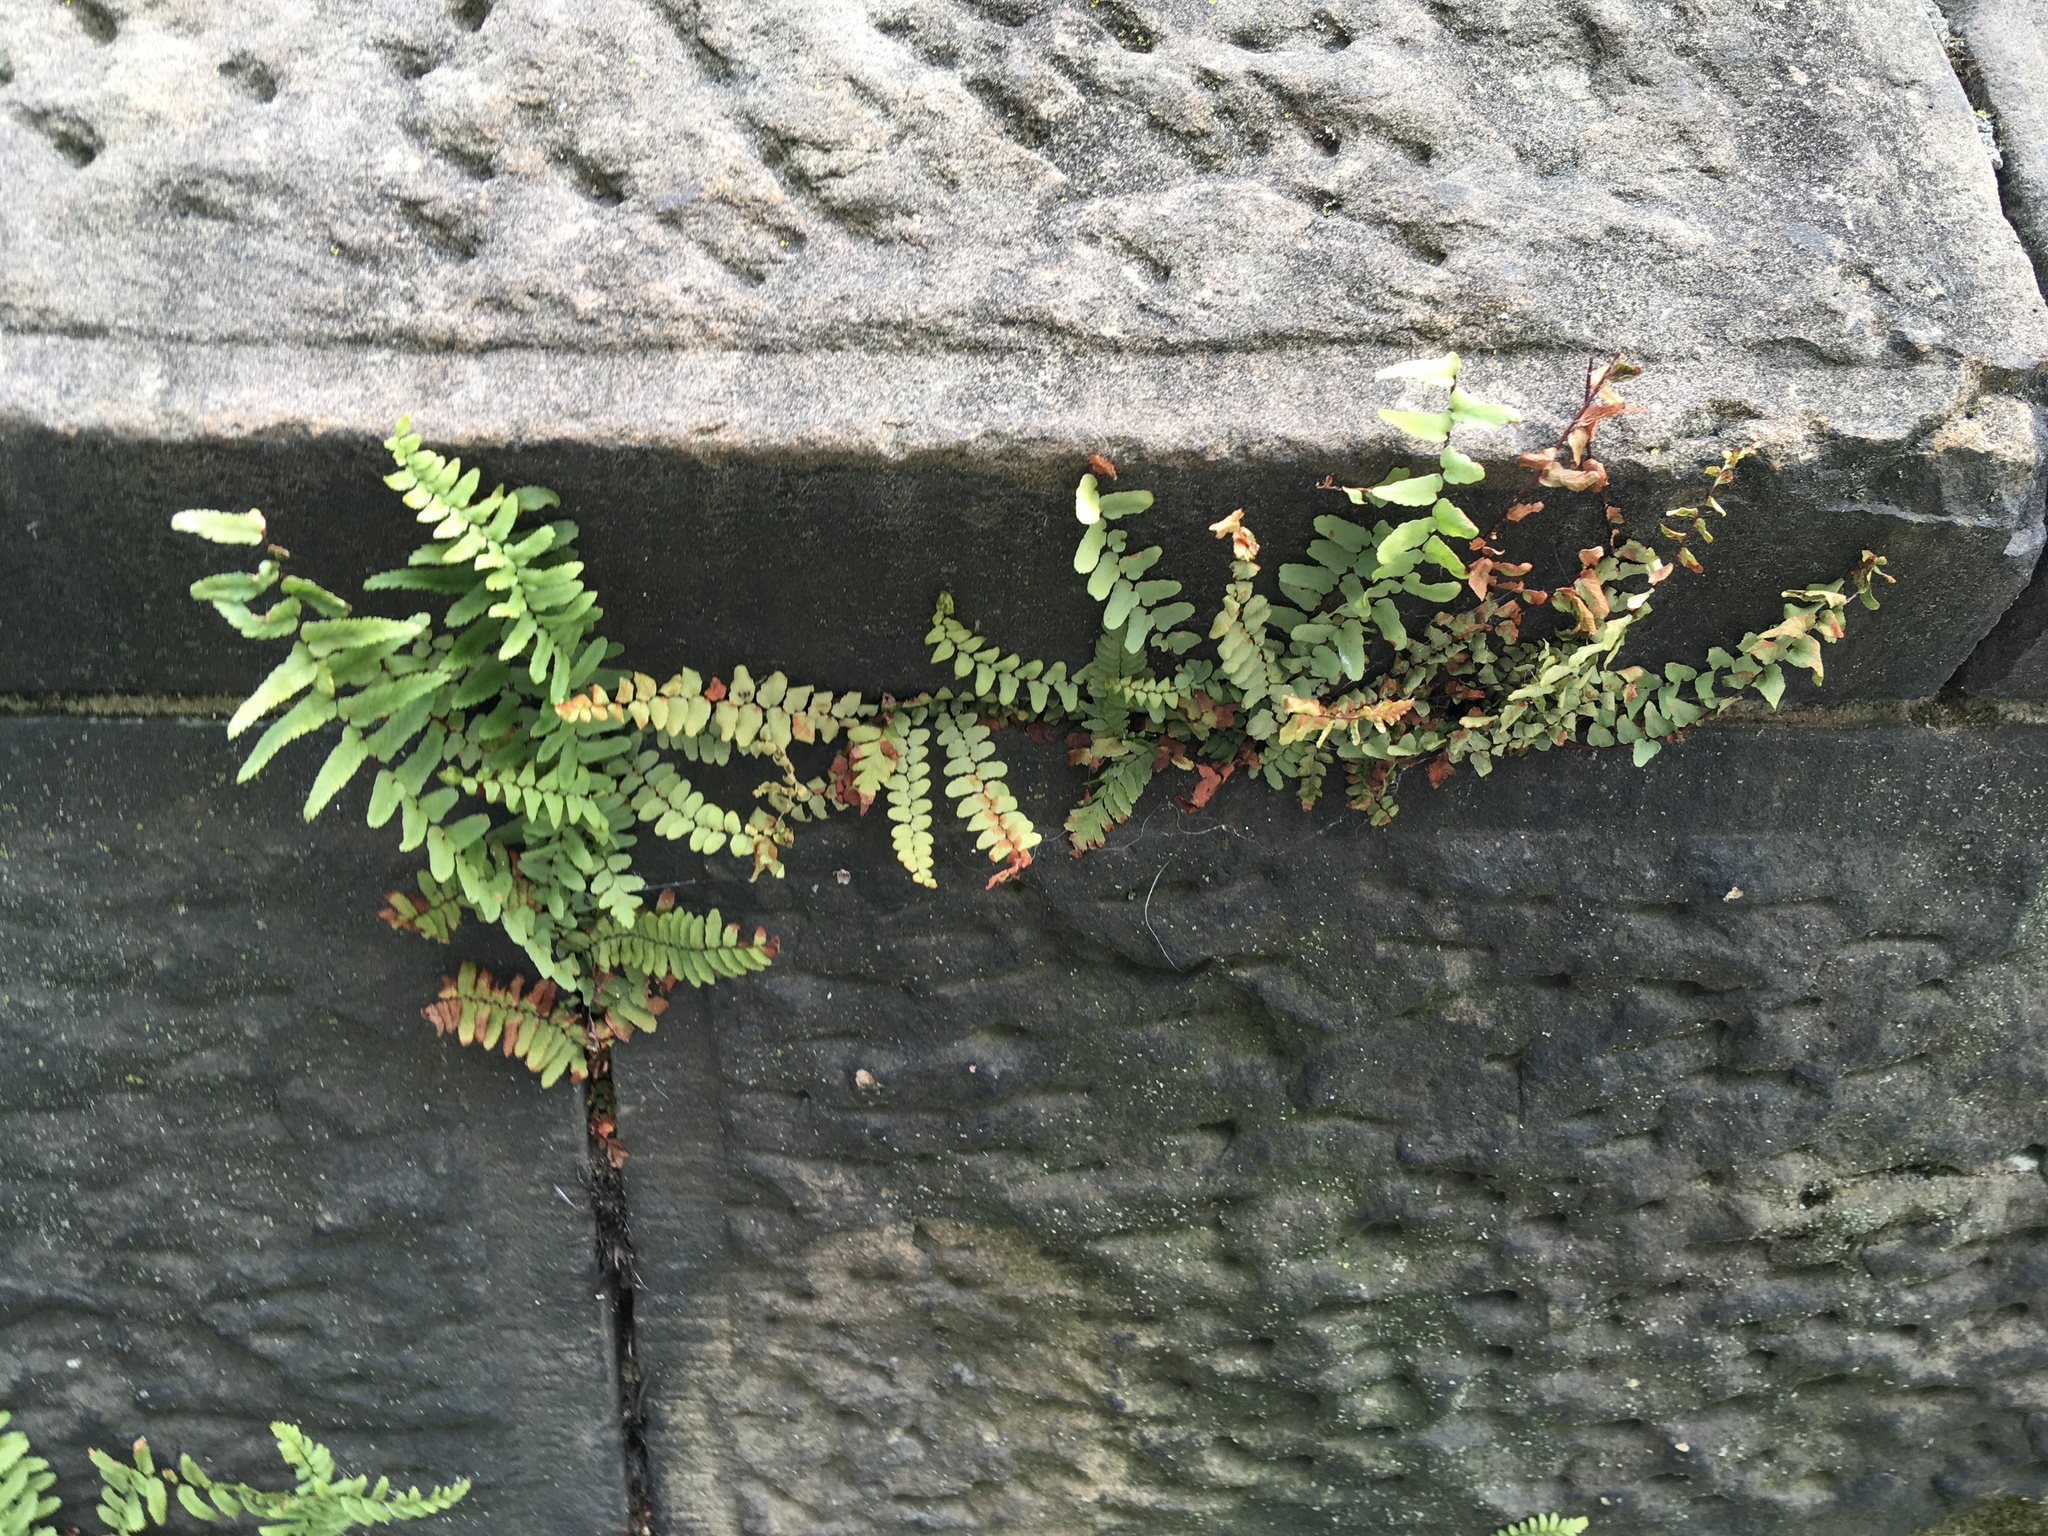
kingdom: Plantae
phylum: Tracheophyta
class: Polypodiopsida
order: Polypodiales
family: Aspleniaceae
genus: Asplenium
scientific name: Asplenium platyneuron
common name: Ebony spleenwort
